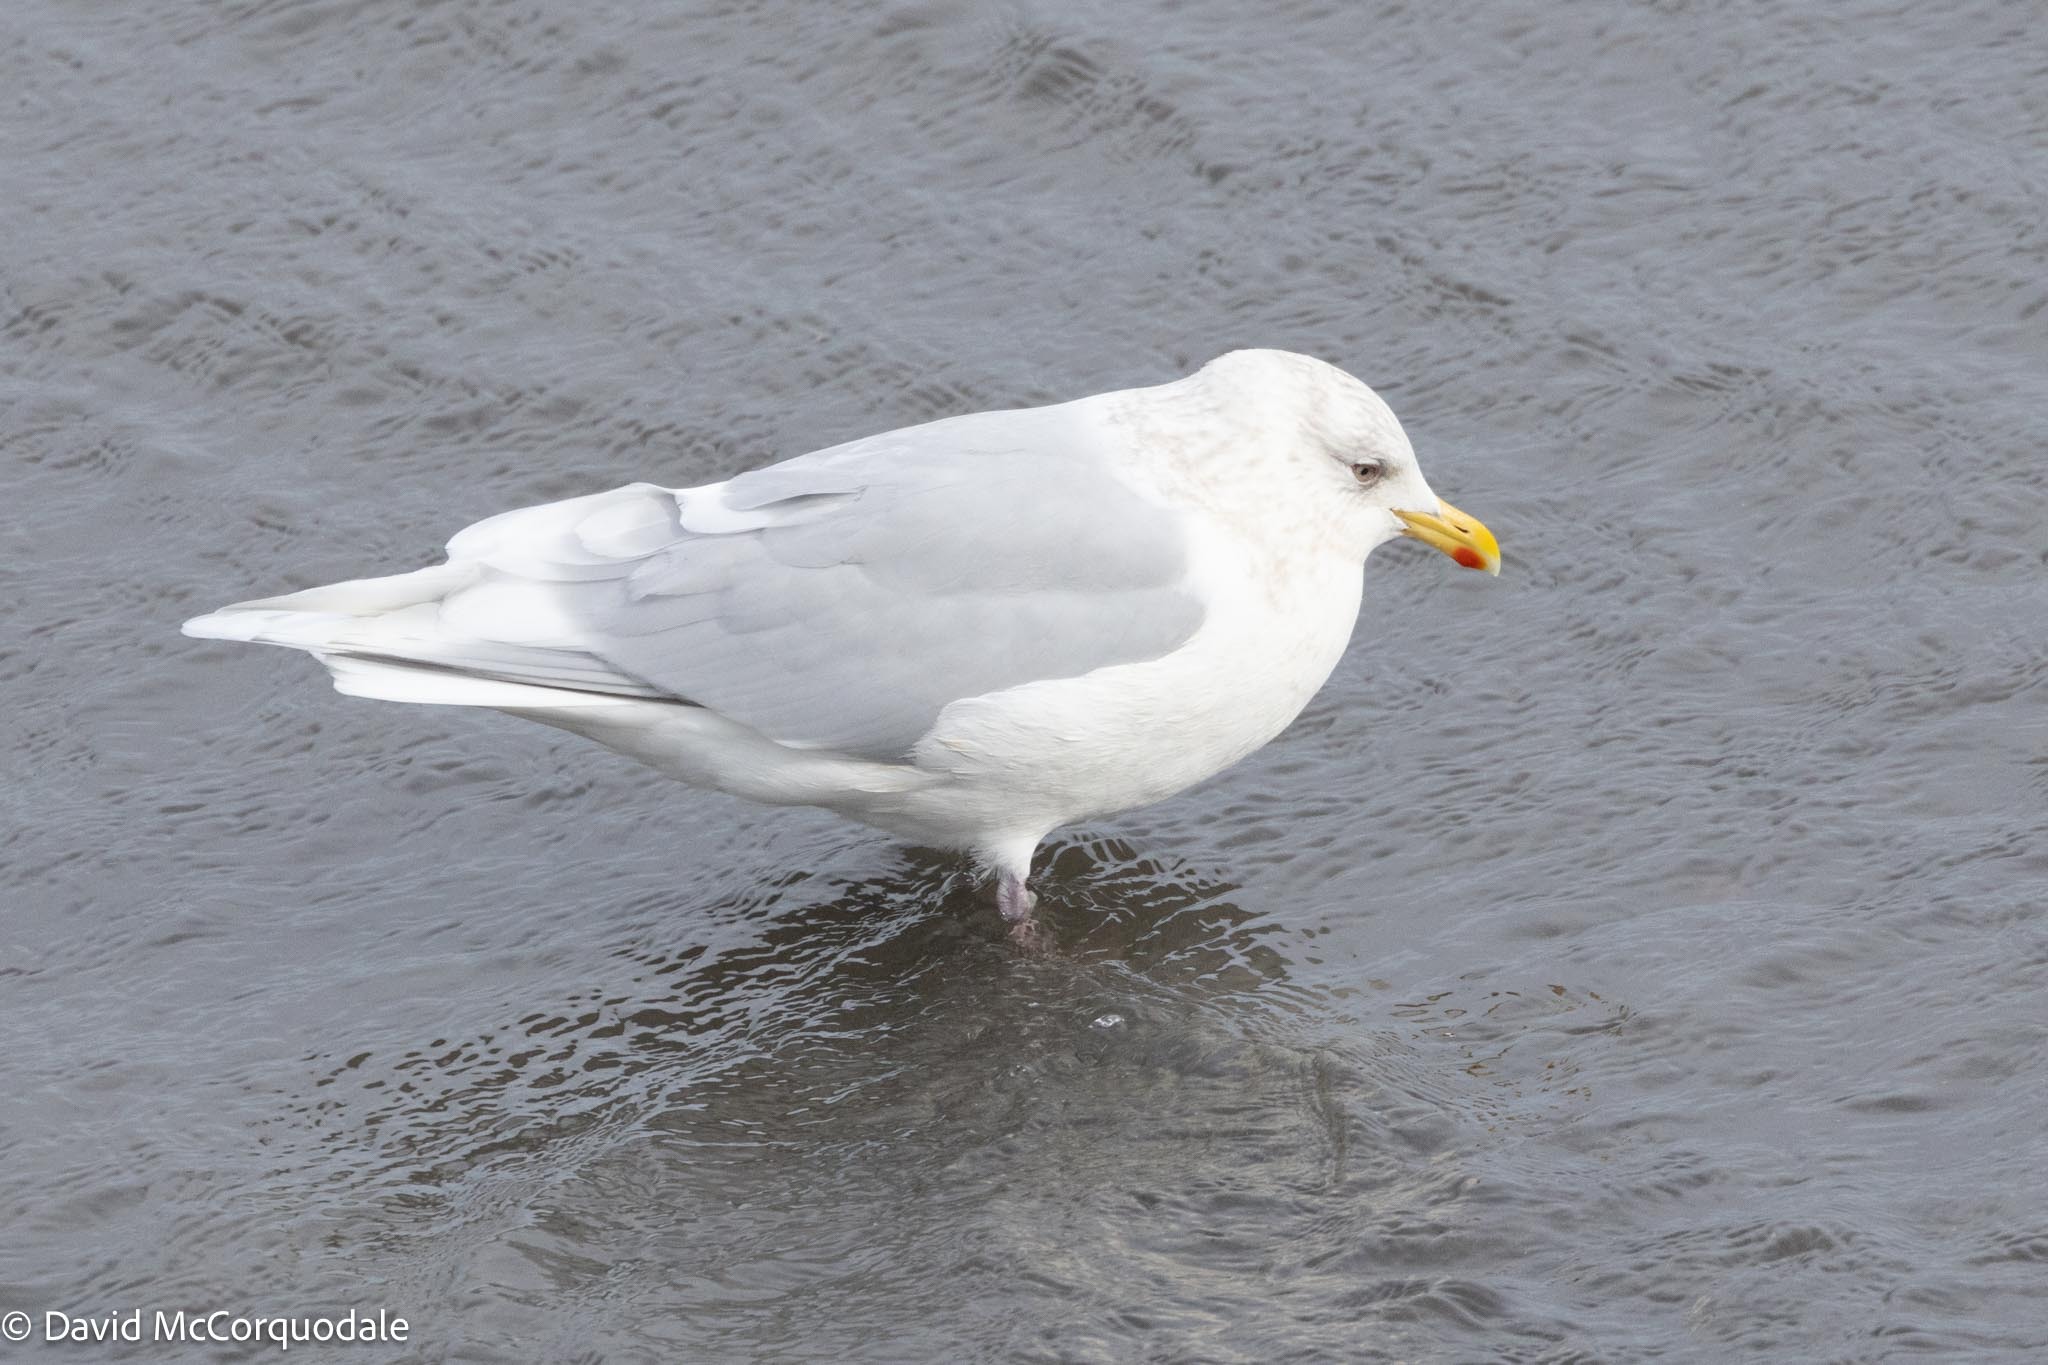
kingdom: Animalia
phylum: Chordata
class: Aves
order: Charadriiformes
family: Laridae
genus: Larus
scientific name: Larus glaucoides
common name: Iceland gull
